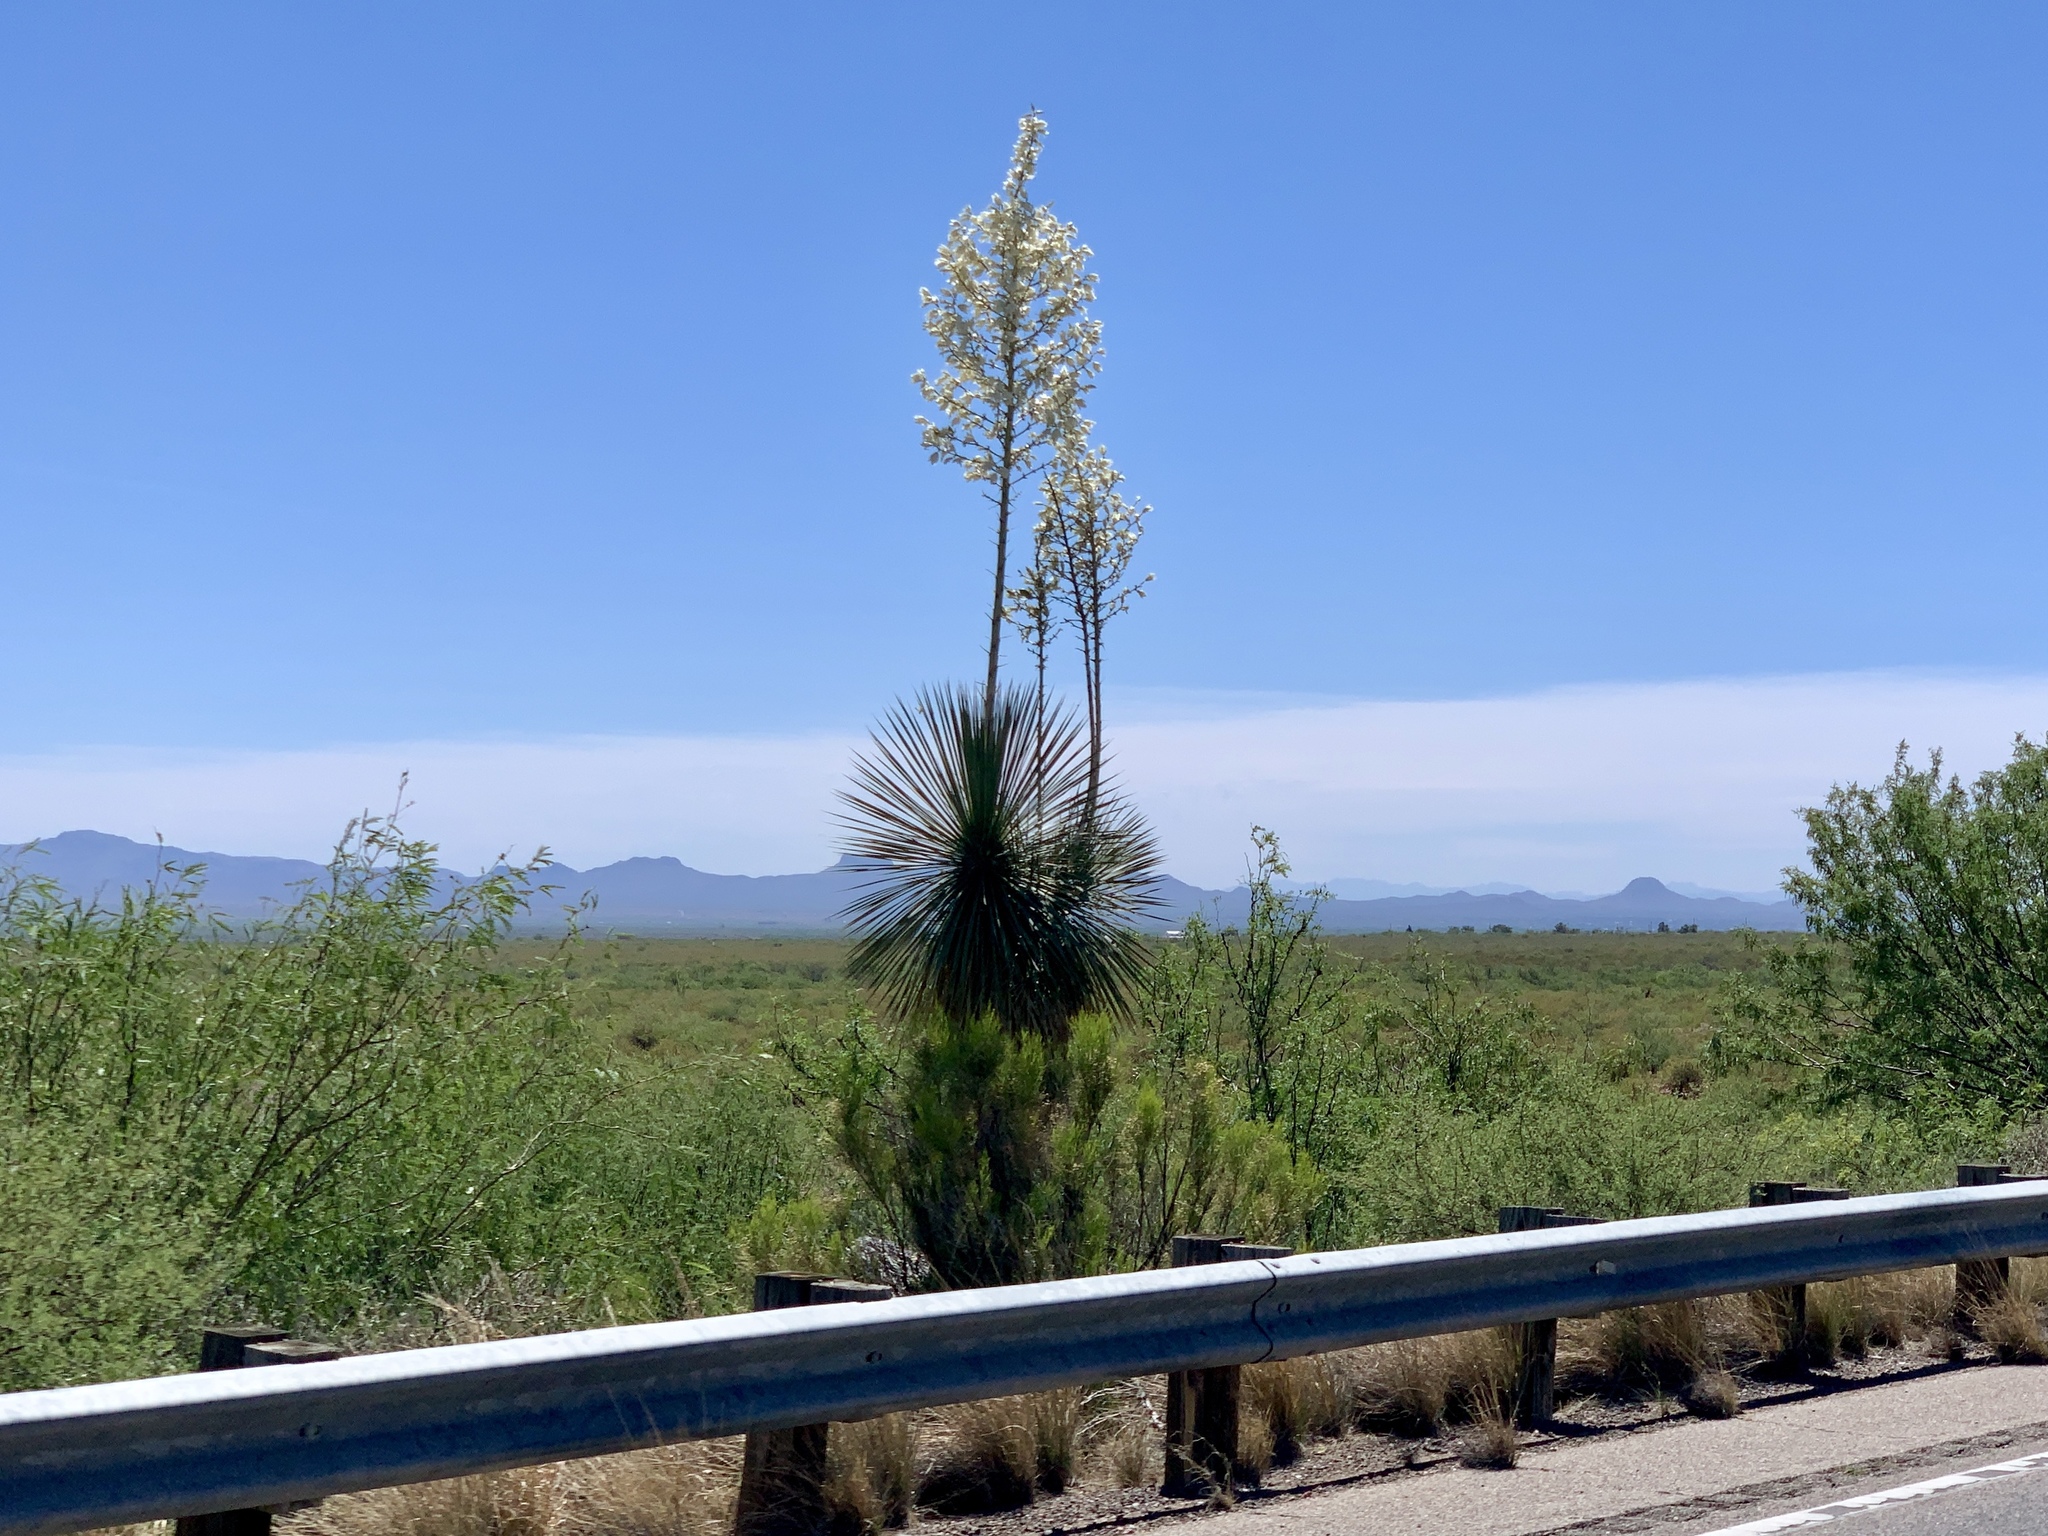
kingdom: Plantae
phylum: Tracheophyta
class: Liliopsida
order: Asparagales
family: Asparagaceae
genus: Yucca
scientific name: Yucca elata
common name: Palmella
